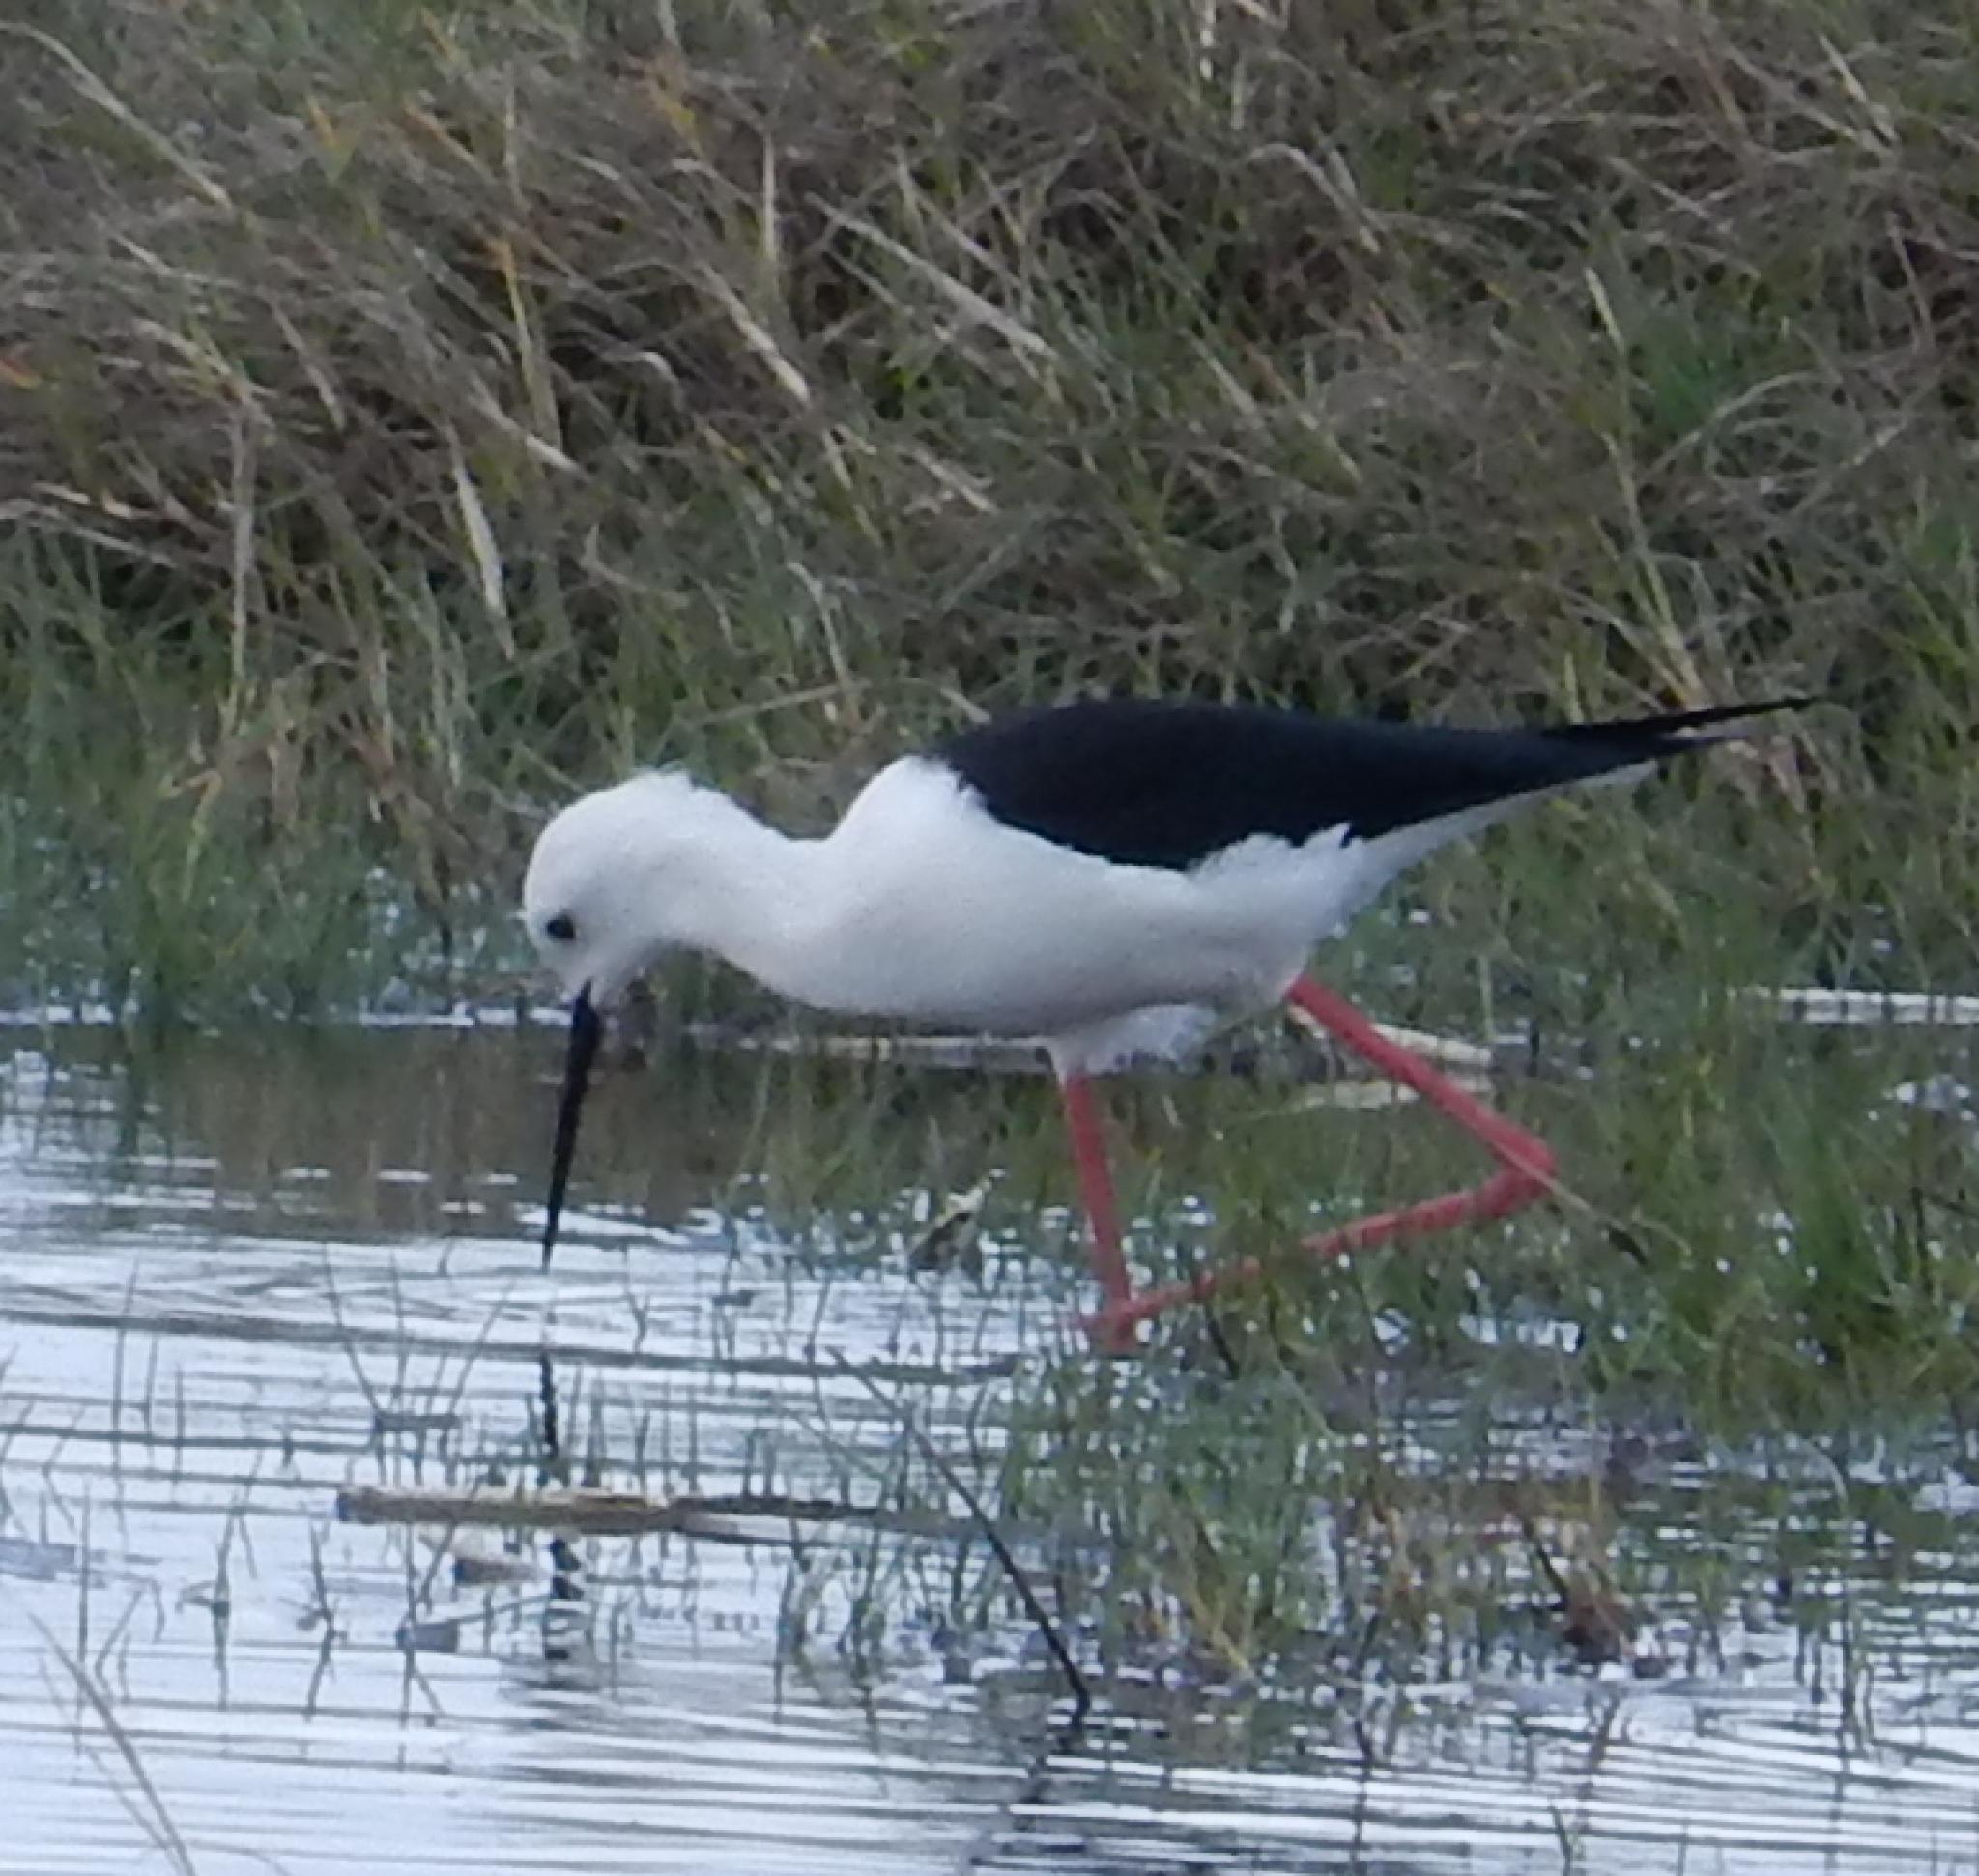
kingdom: Animalia
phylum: Chordata
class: Aves
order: Charadriiformes
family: Recurvirostridae
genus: Himantopus
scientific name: Himantopus himantopus
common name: Black-winged stilt
